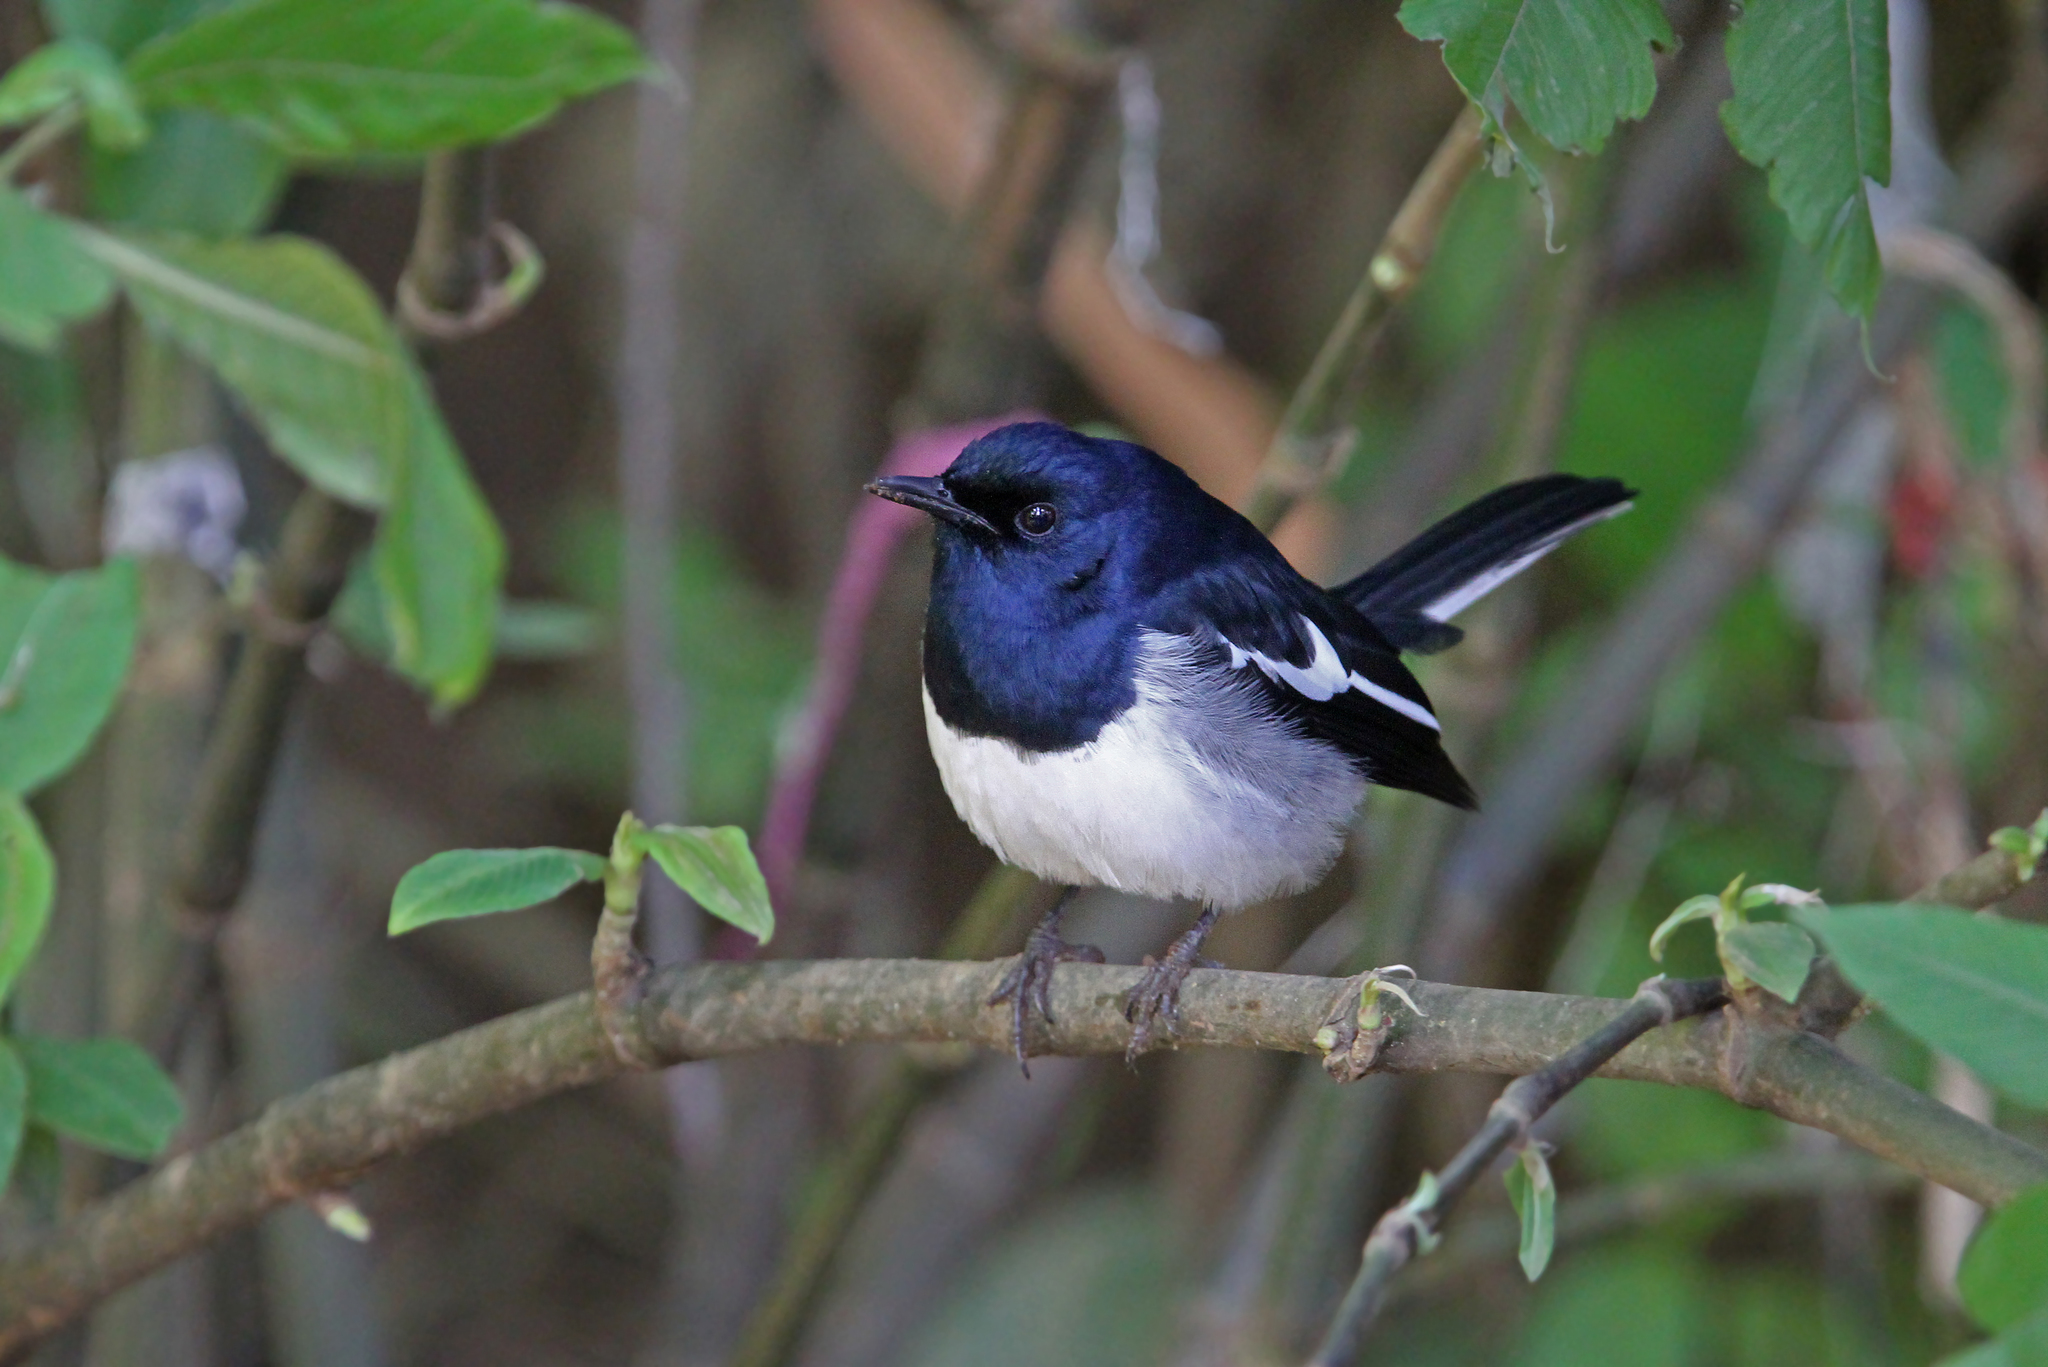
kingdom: Animalia
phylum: Chordata
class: Aves
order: Passeriformes
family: Muscicapidae
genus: Copsychus
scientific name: Copsychus saularis
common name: Oriental magpie-robin
